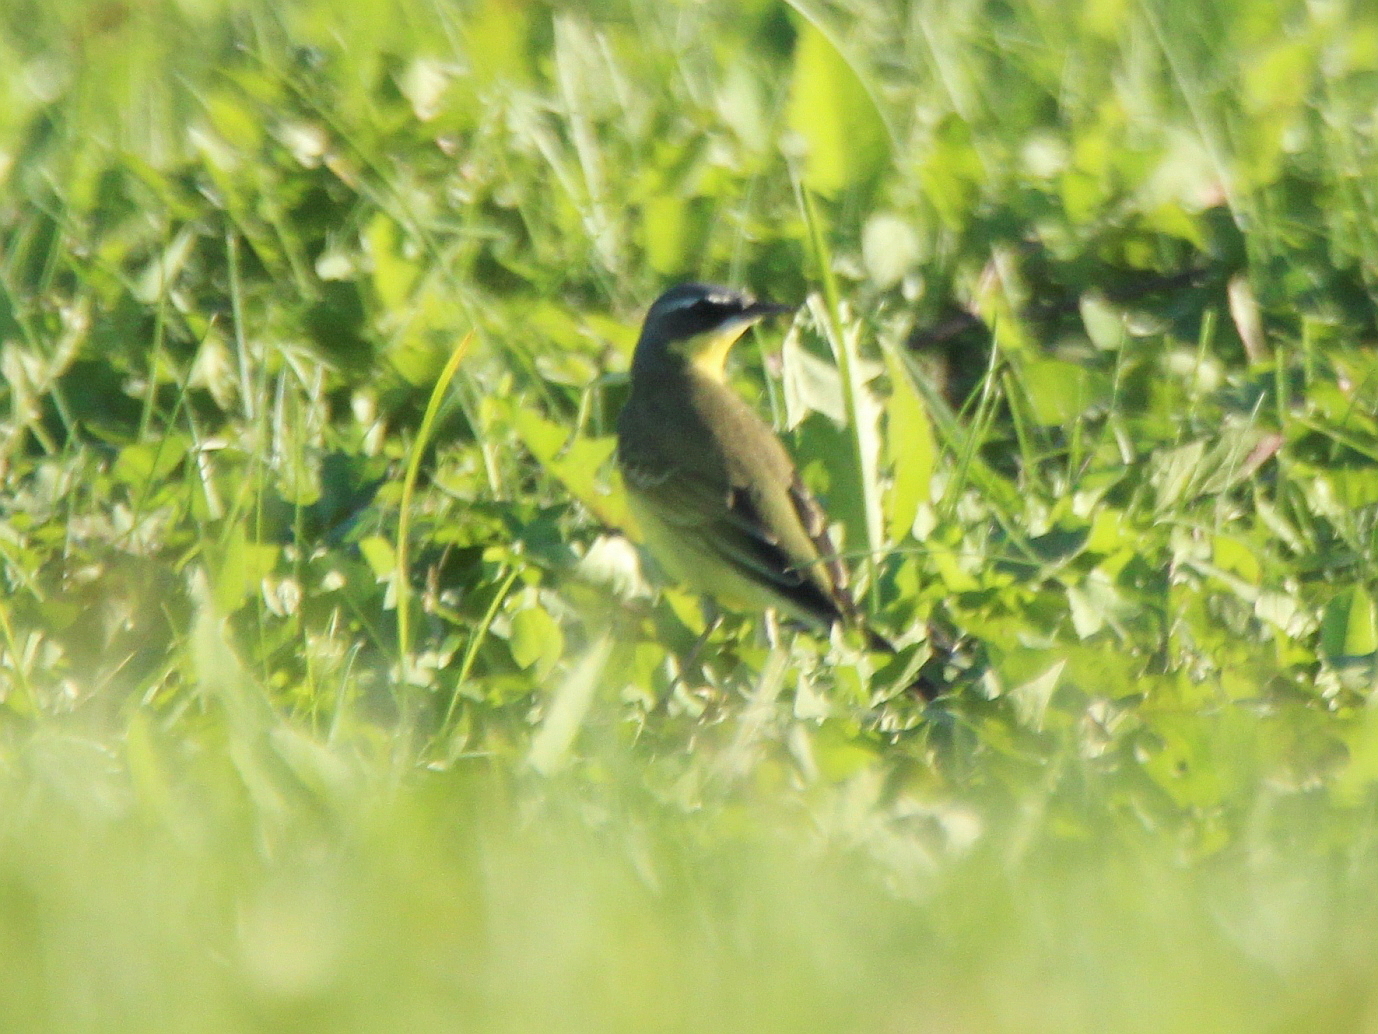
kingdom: Animalia
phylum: Chordata
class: Aves
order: Passeriformes
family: Motacillidae
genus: Motacilla
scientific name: Motacilla tschutschensis
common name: Eastern yellow wagtail
